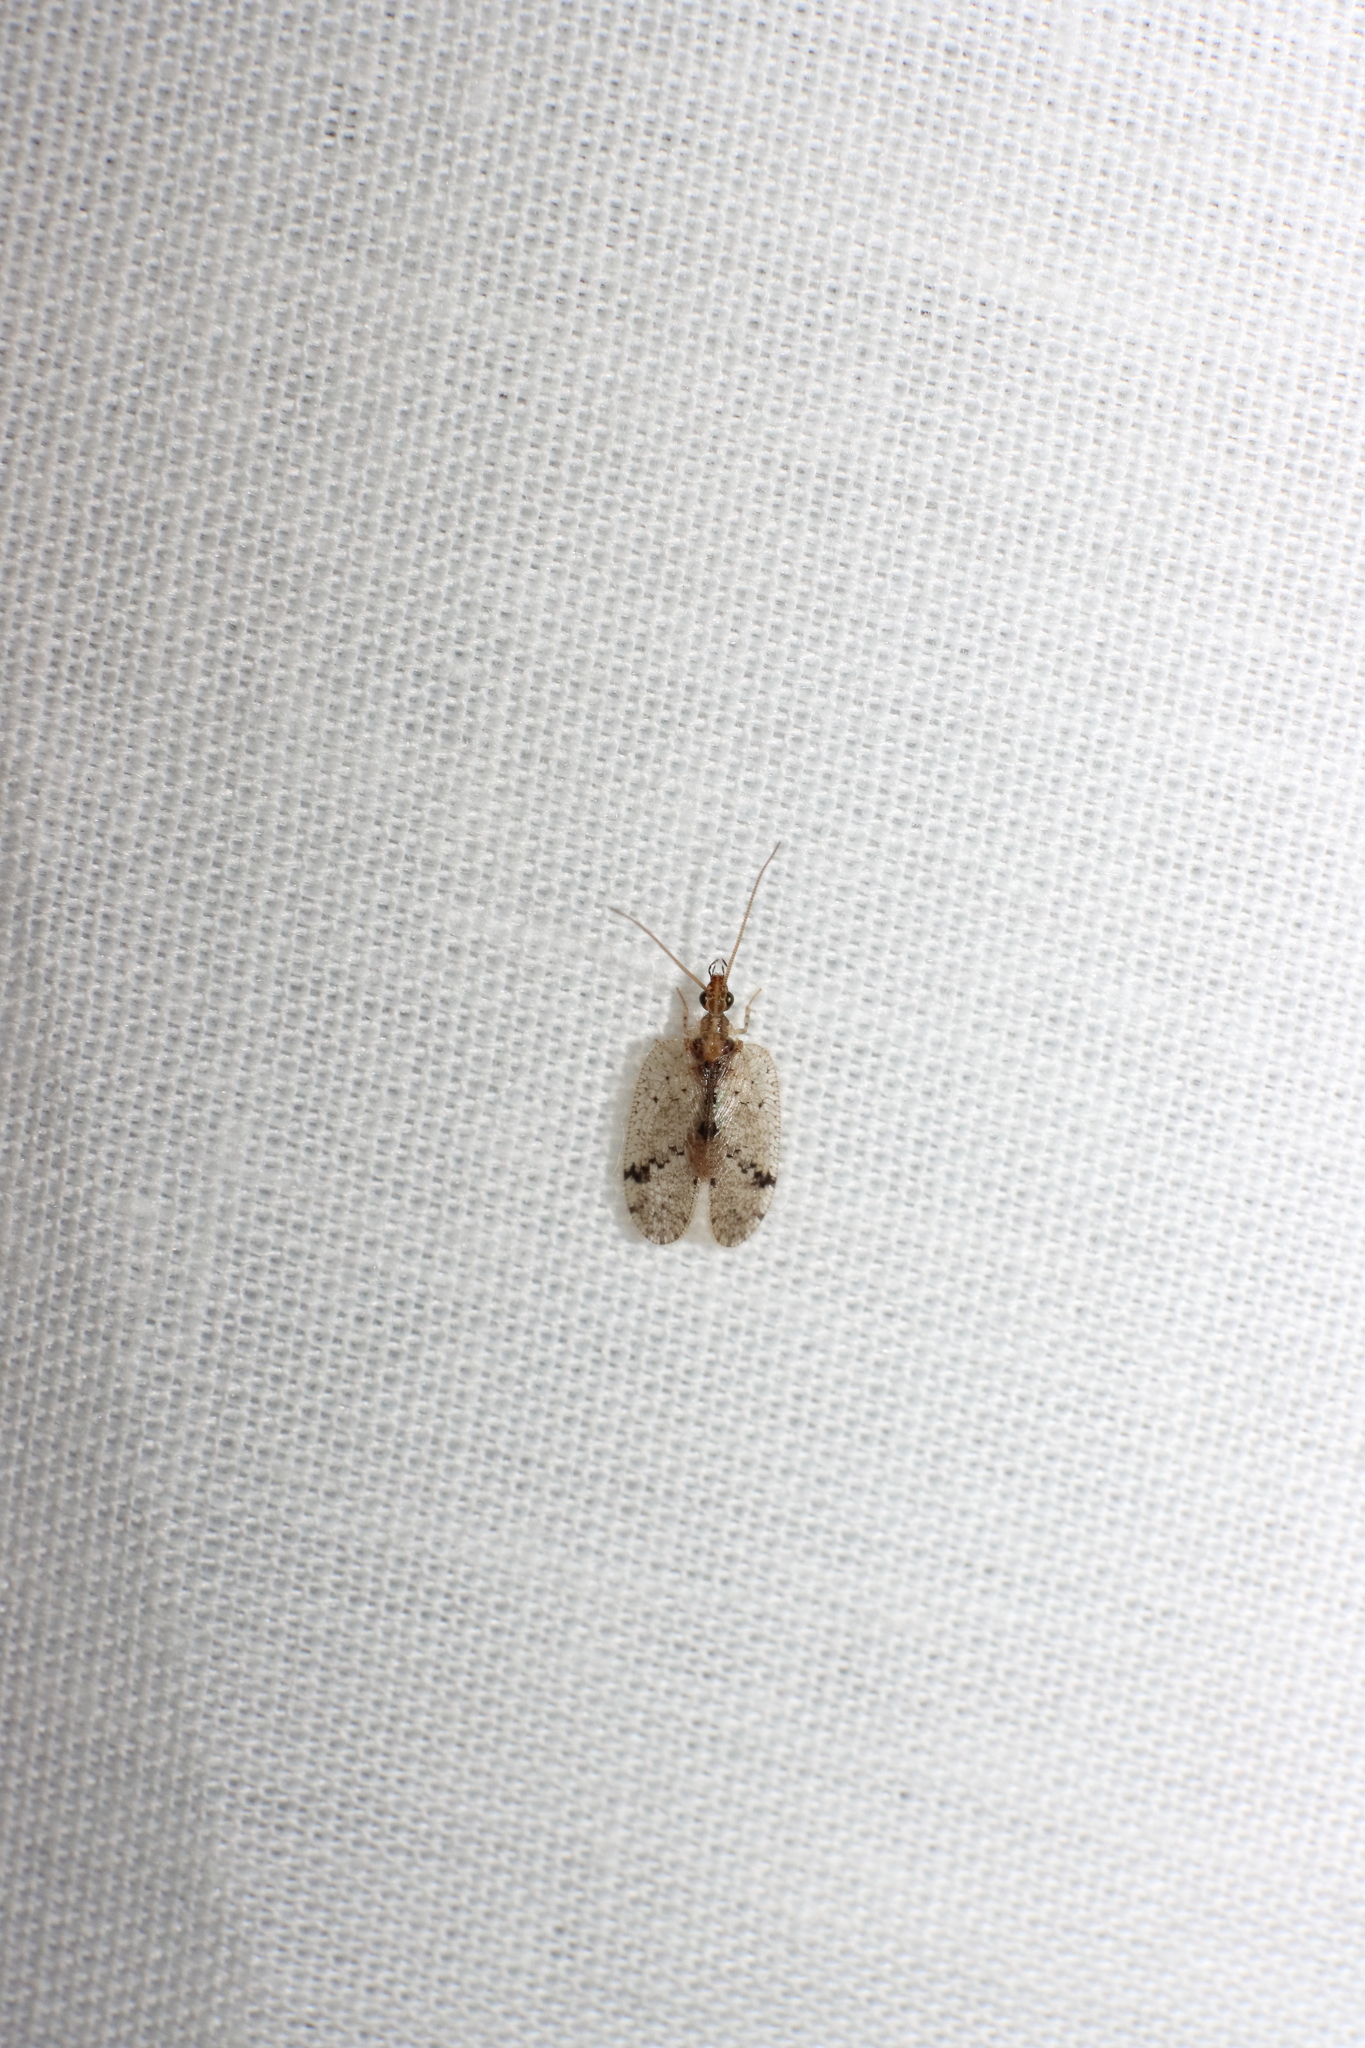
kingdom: Animalia
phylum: Arthropoda
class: Insecta
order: Neuroptera
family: Hemerobiidae
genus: Psectra
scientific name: Psectra nakaharai
